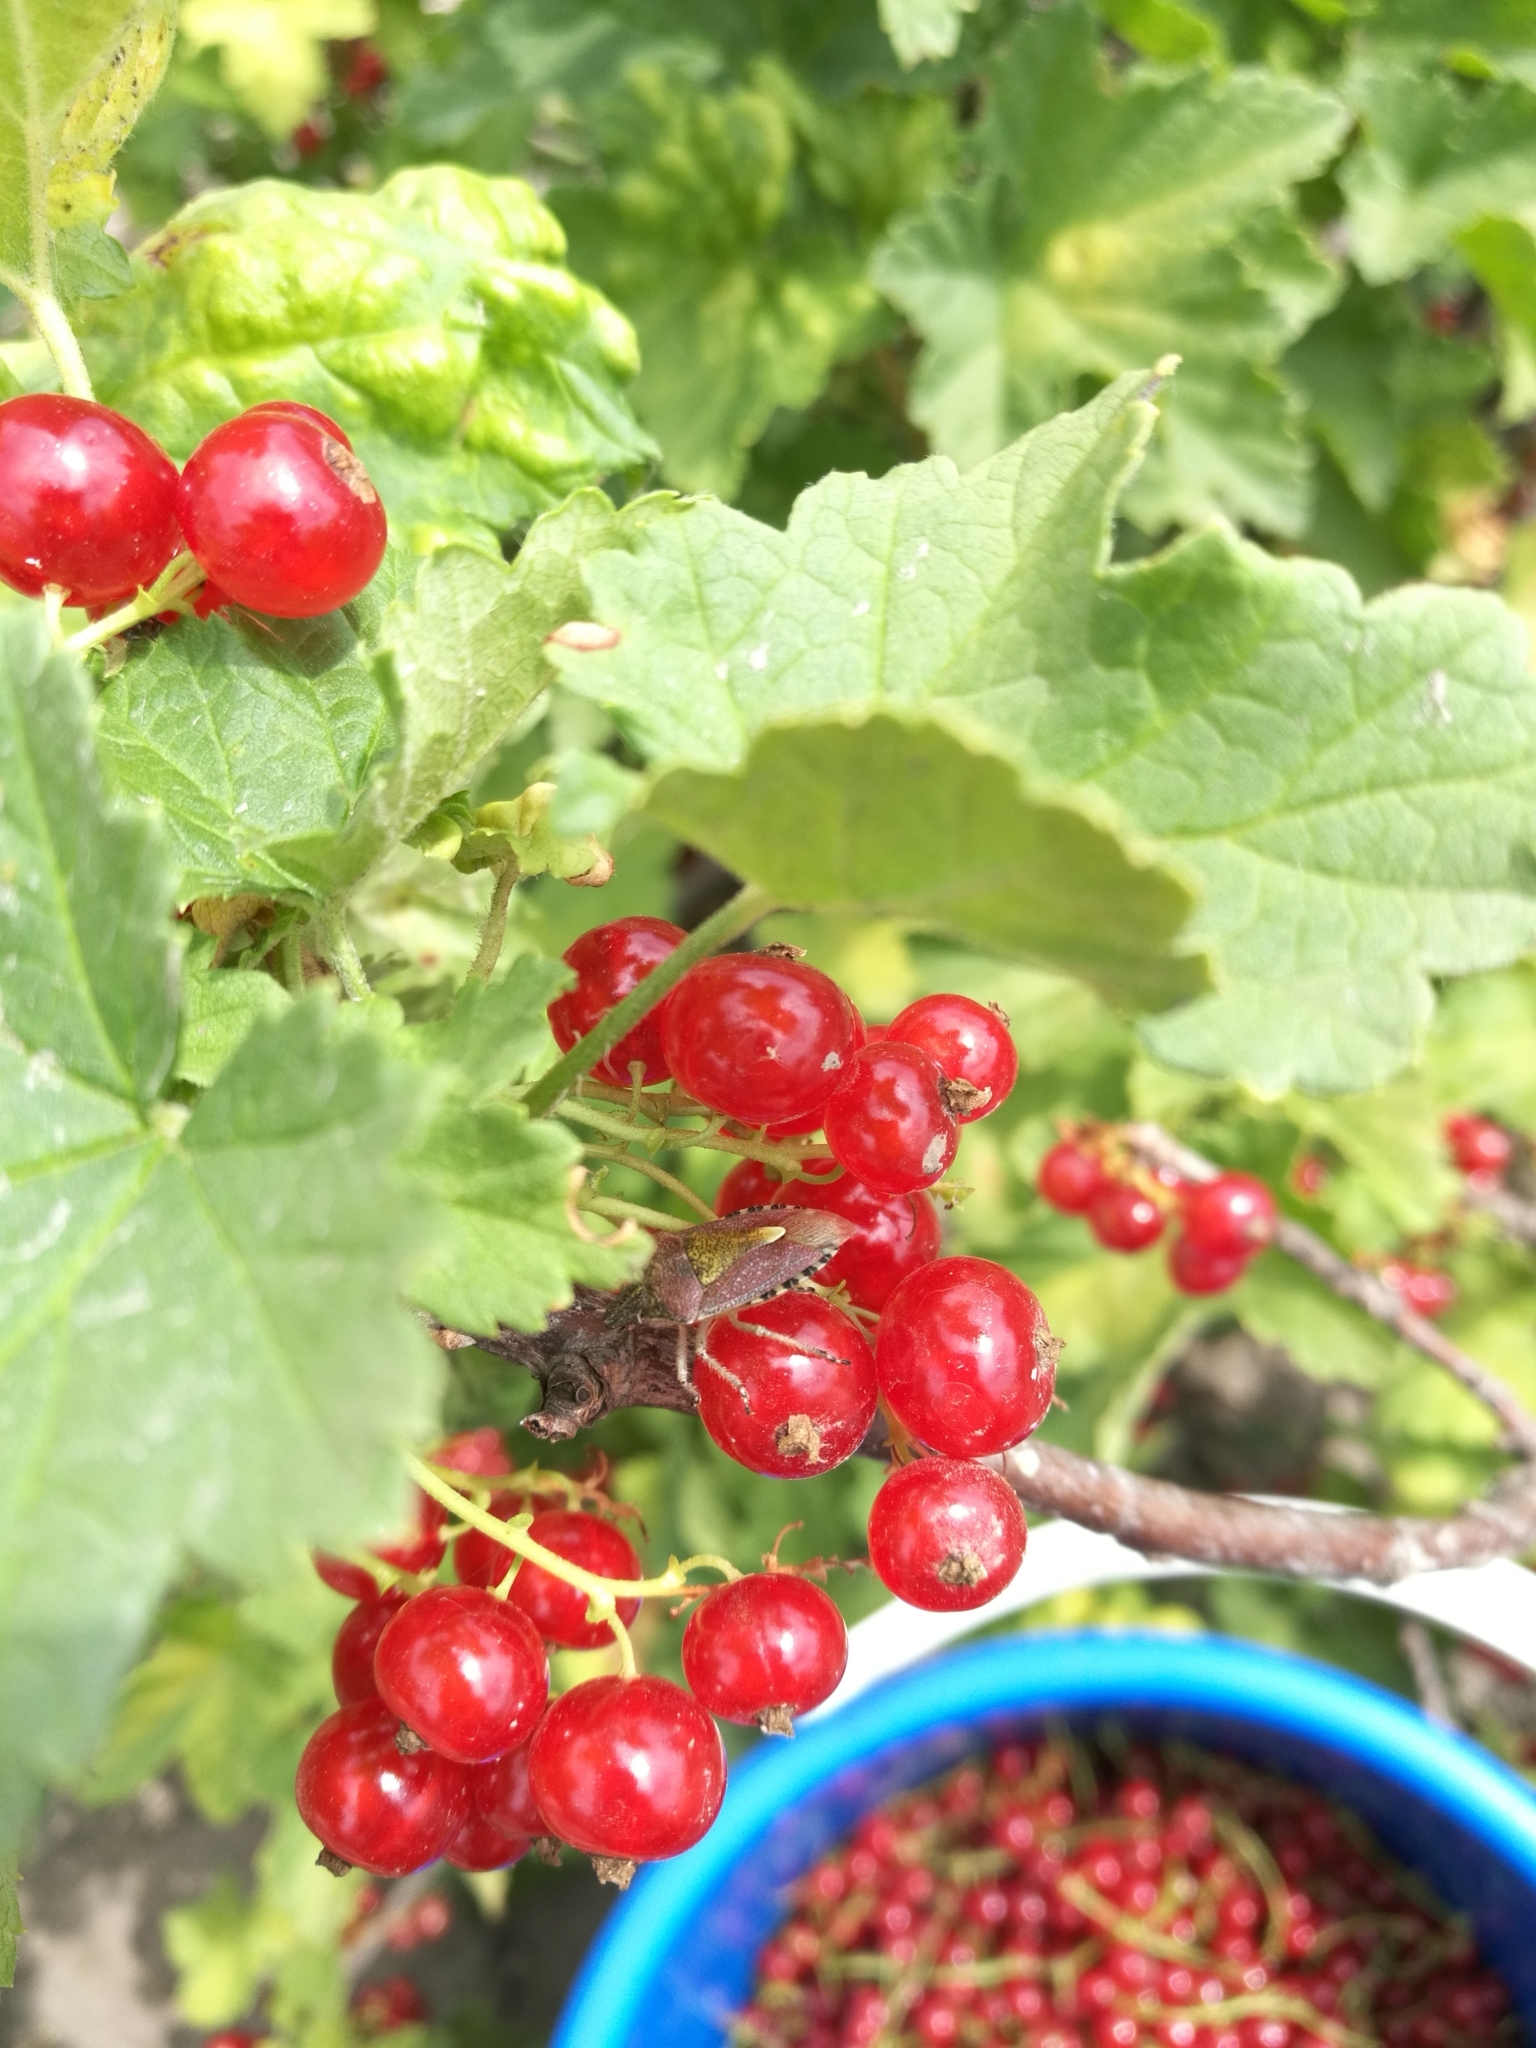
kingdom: Animalia
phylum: Arthropoda
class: Insecta
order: Hemiptera
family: Pentatomidae
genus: Dolycoris
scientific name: Dolycoris baccarum
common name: Sloe bug
